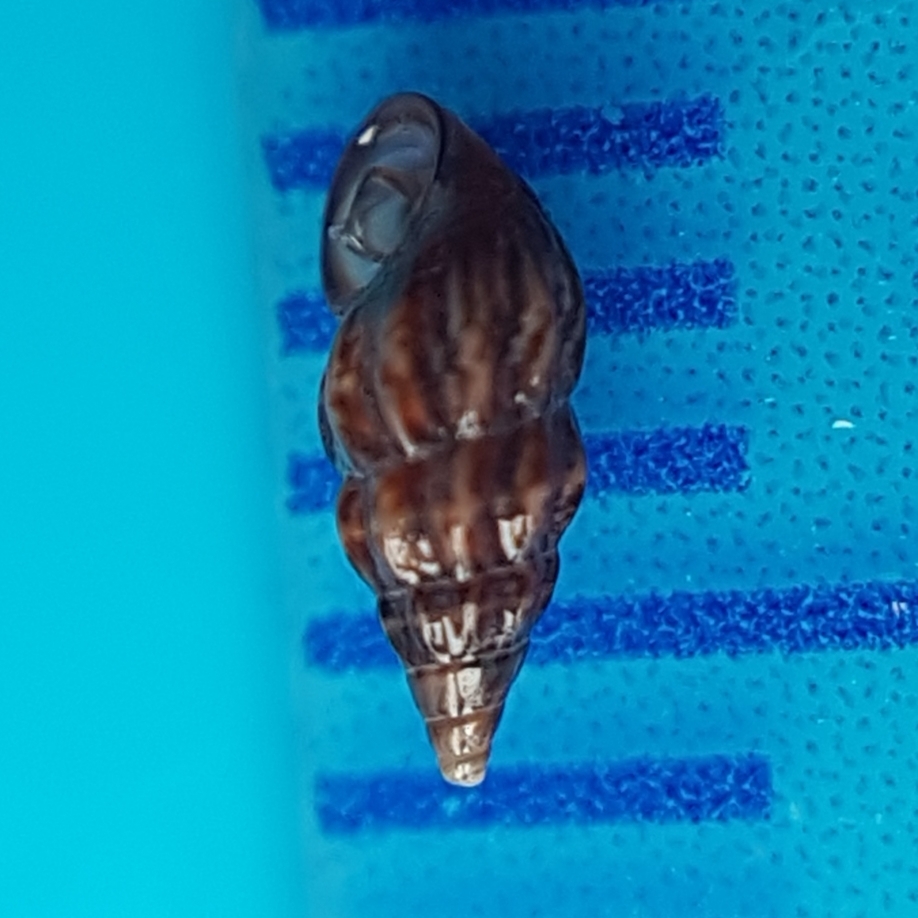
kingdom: Animalia
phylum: Mollusca
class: Gastropoda
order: Littorinimorpha
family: Rissoidae
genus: Rissoa
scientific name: Rissoa guerinii
